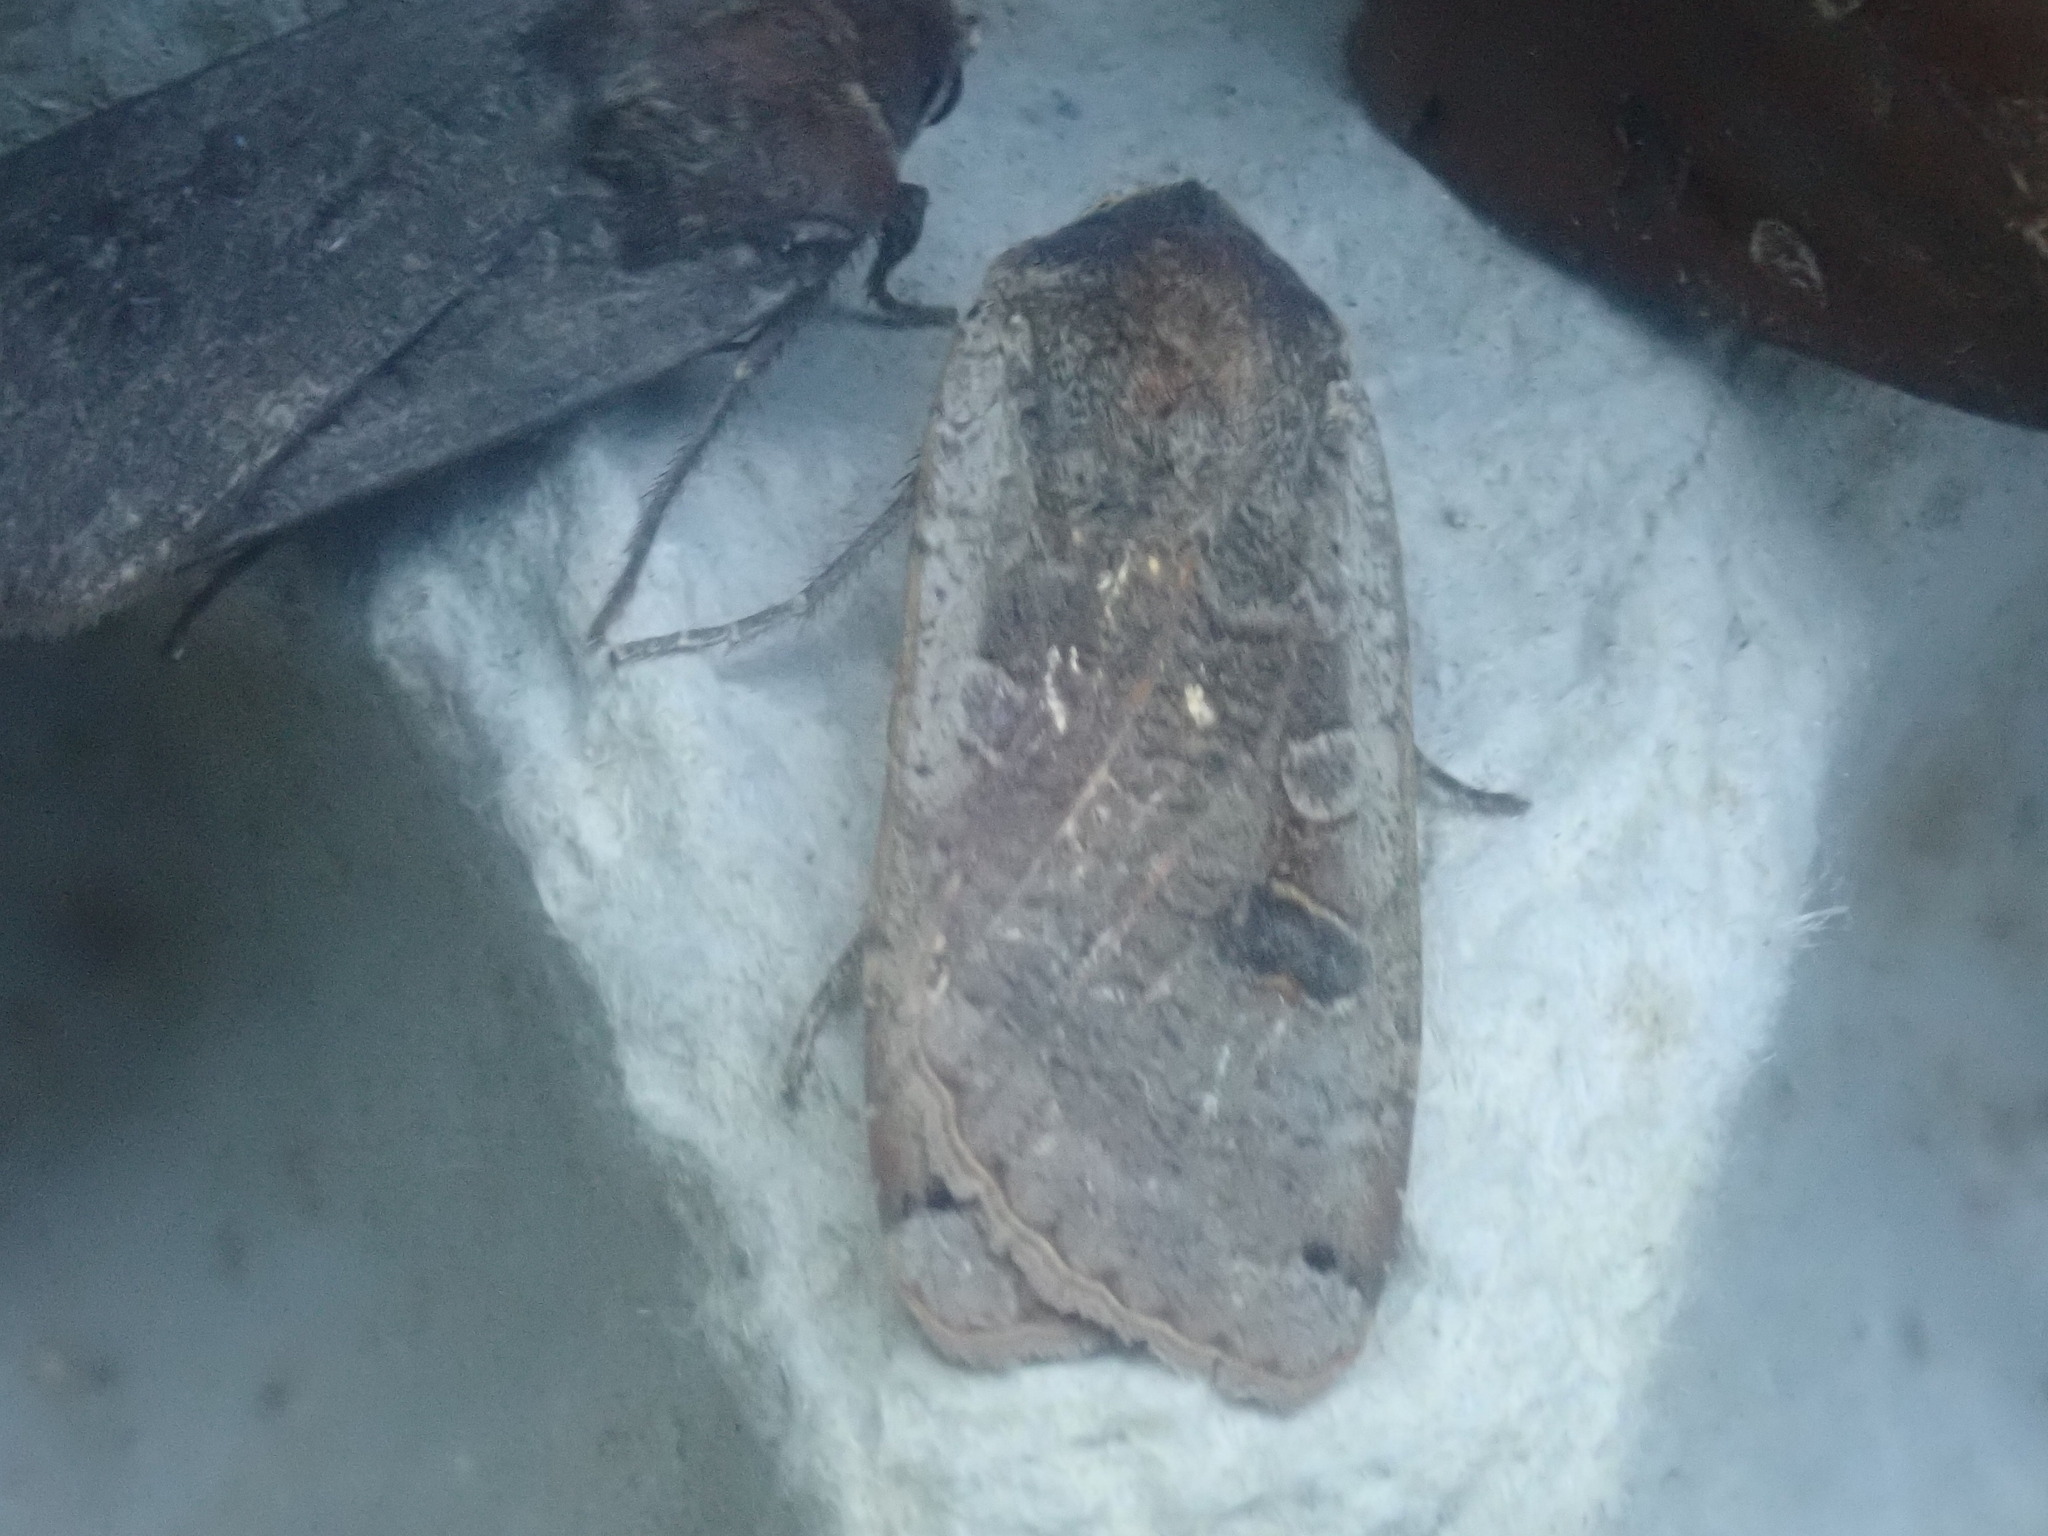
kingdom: Animalia
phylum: Arthropoda
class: Insecta
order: Lepidoptera
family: Noctuidae
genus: Noctua
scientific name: Noctua pronuba
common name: Large yellow underwing
